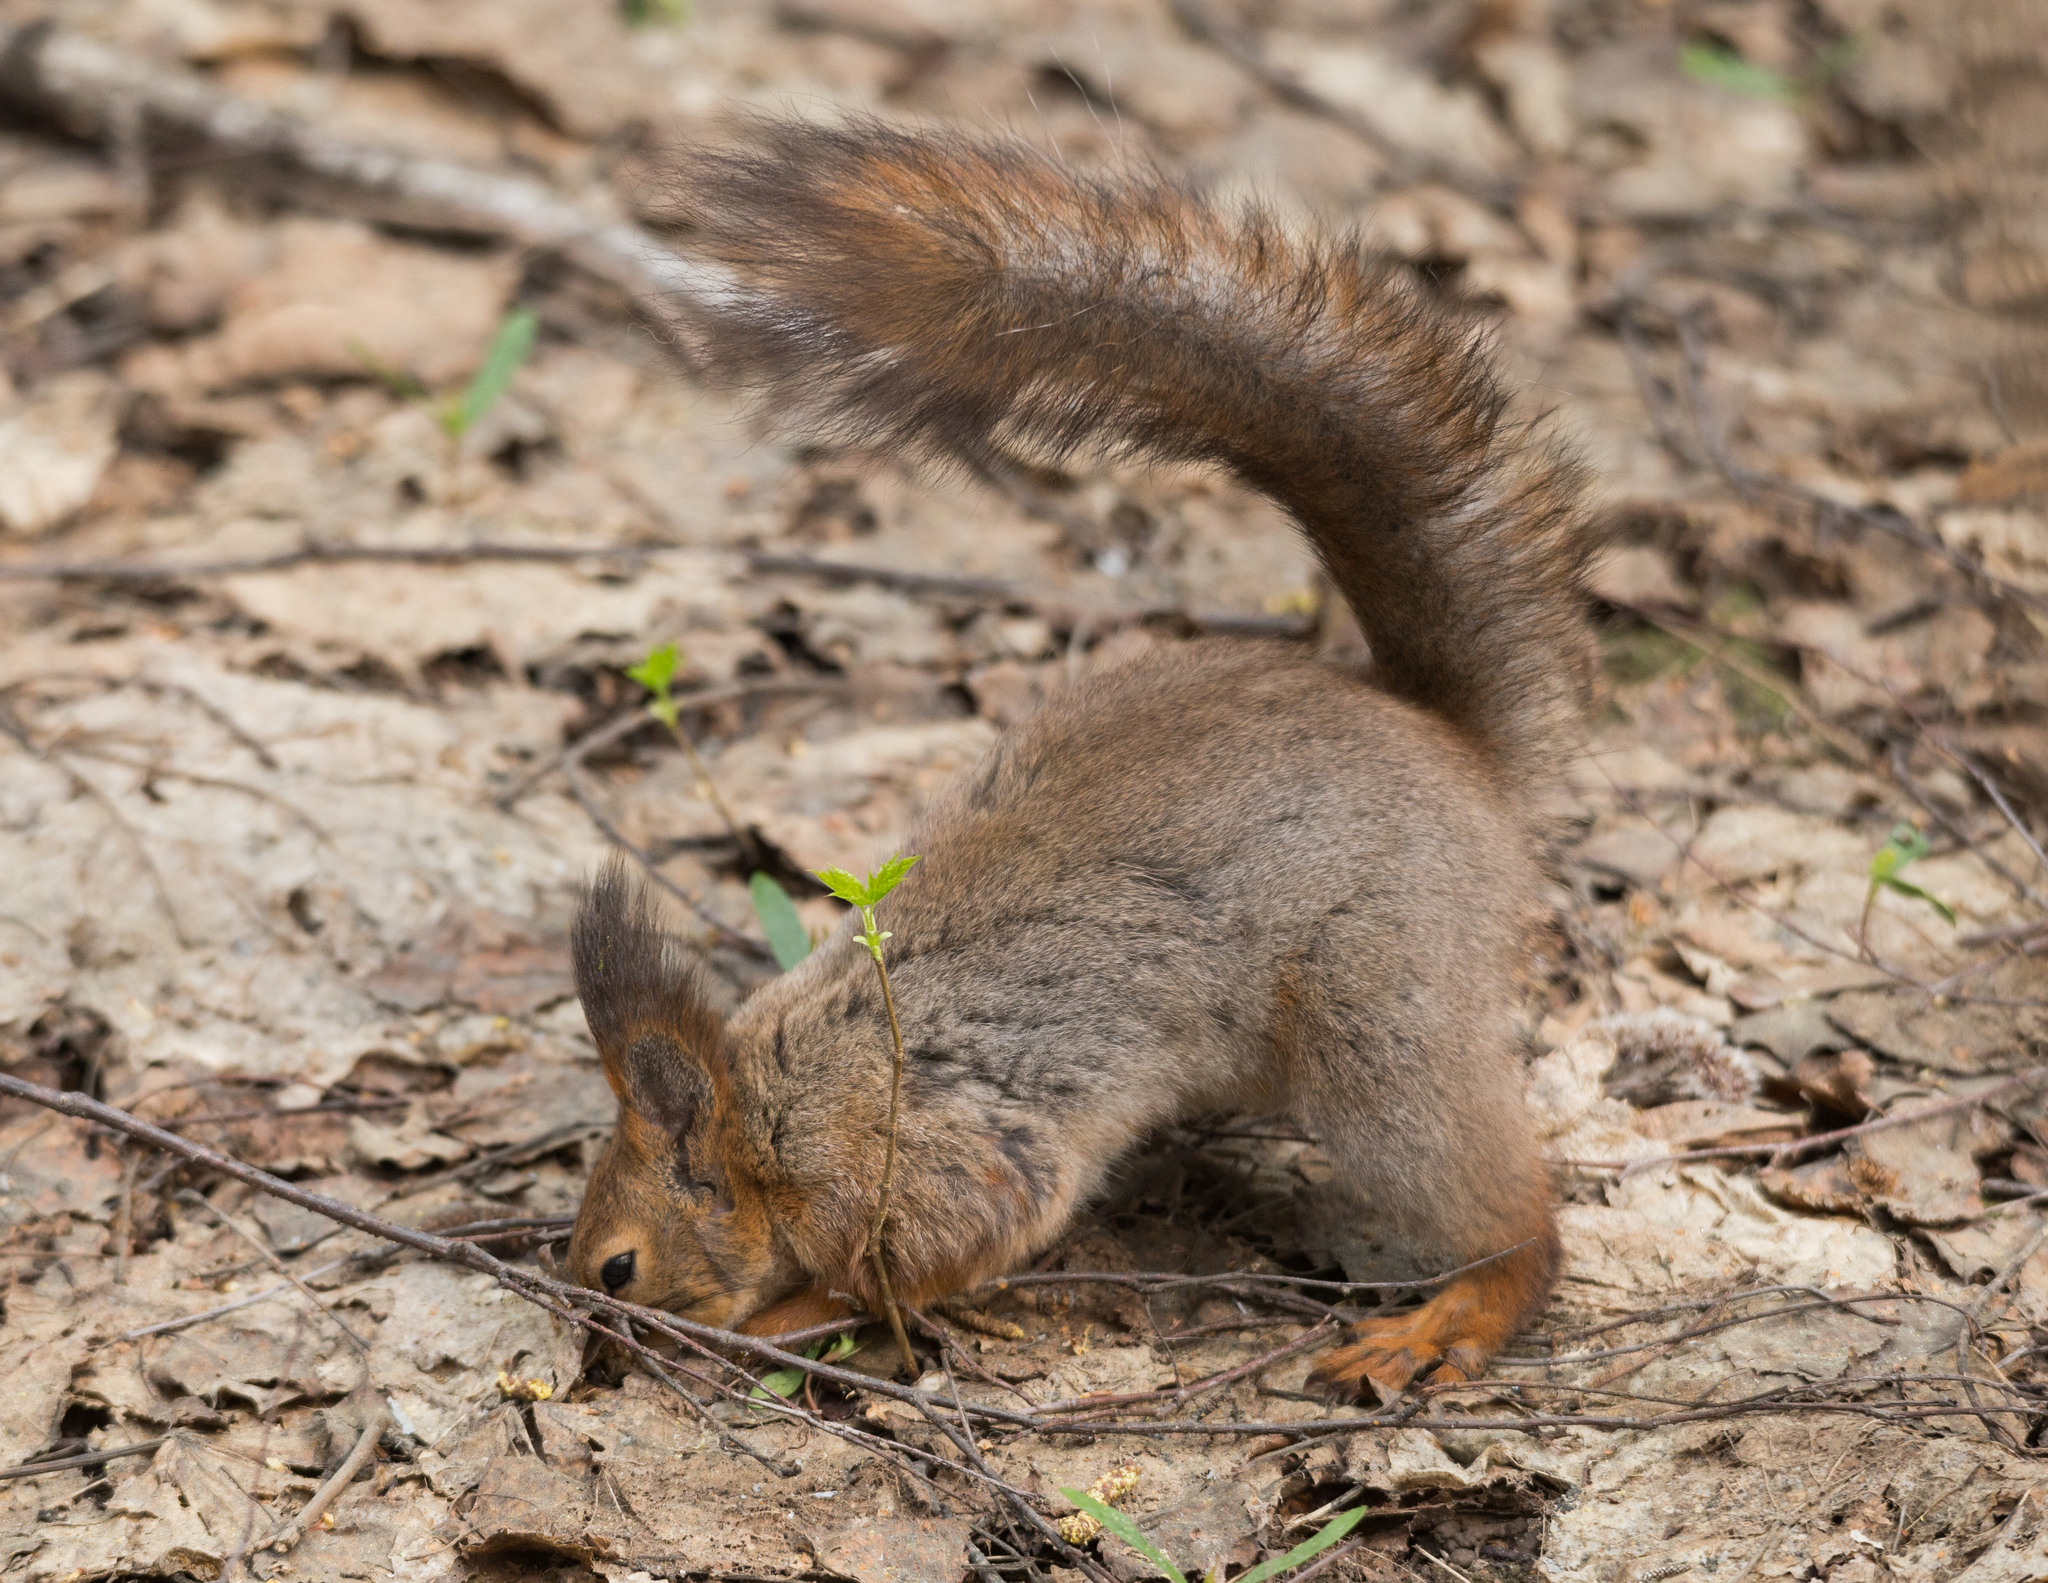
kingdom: Animalia
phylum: Chordata
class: Mammalia
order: Rodentia
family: Sciuridae
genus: Sciurus
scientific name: Sciurus vulgaris
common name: Eurasian red squirrel
